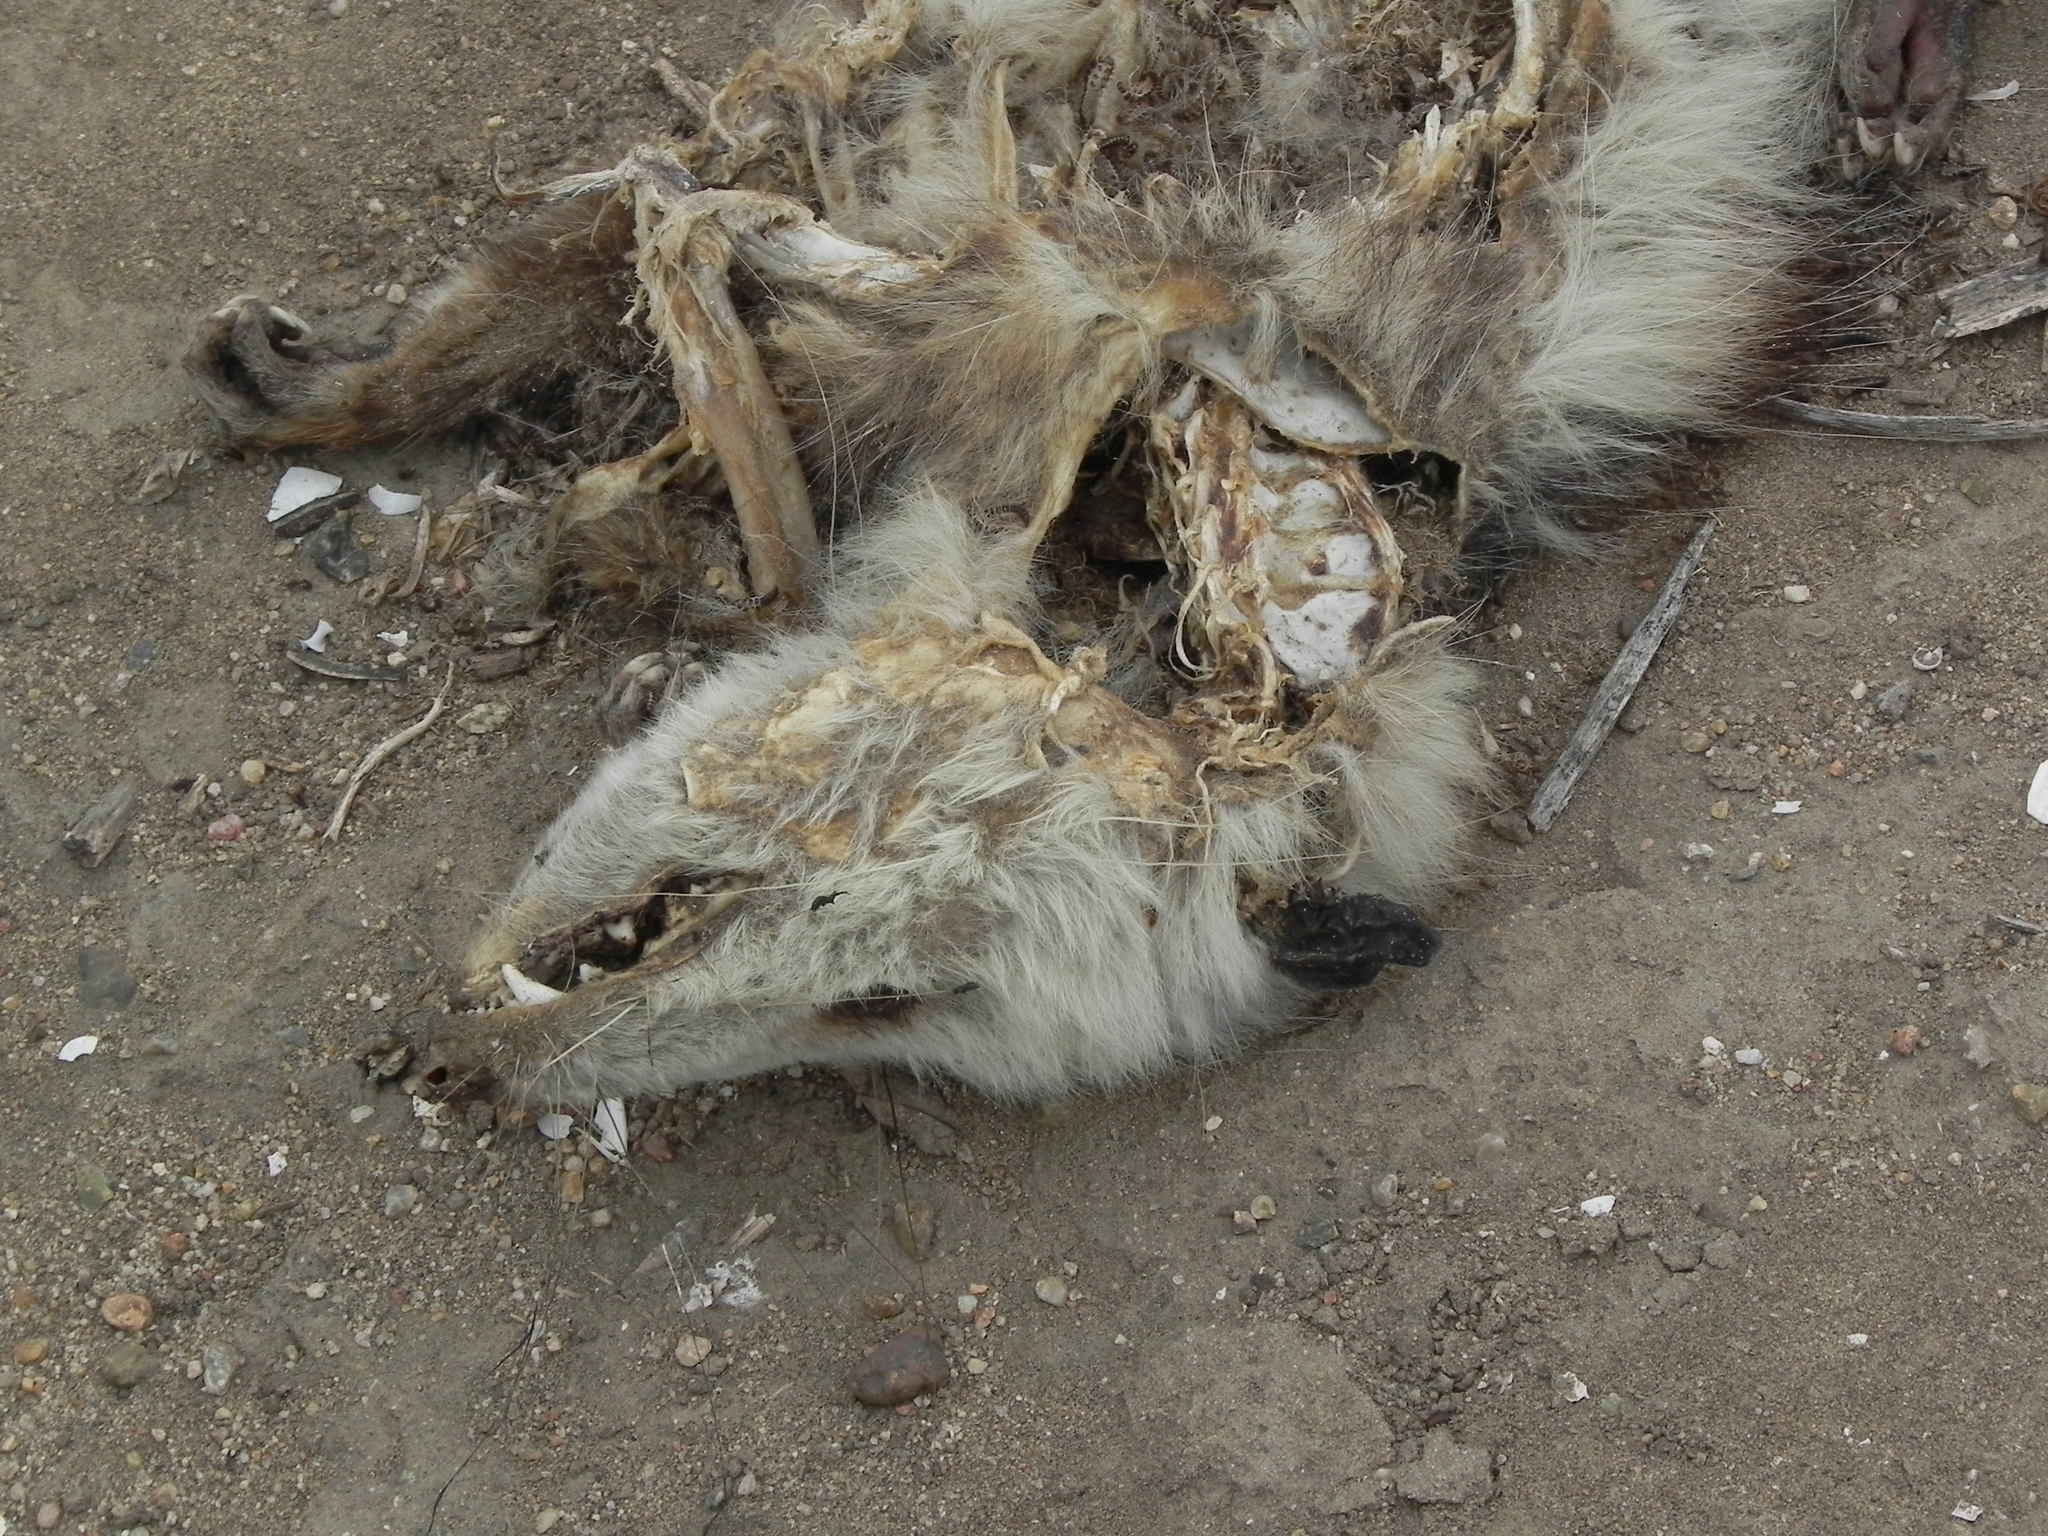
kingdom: Animalia
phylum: Chordata
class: Mammalia
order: Didelphimorphia
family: Didelphidae
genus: Didelphis
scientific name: Didelphis virginiana
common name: Virginia opossum
